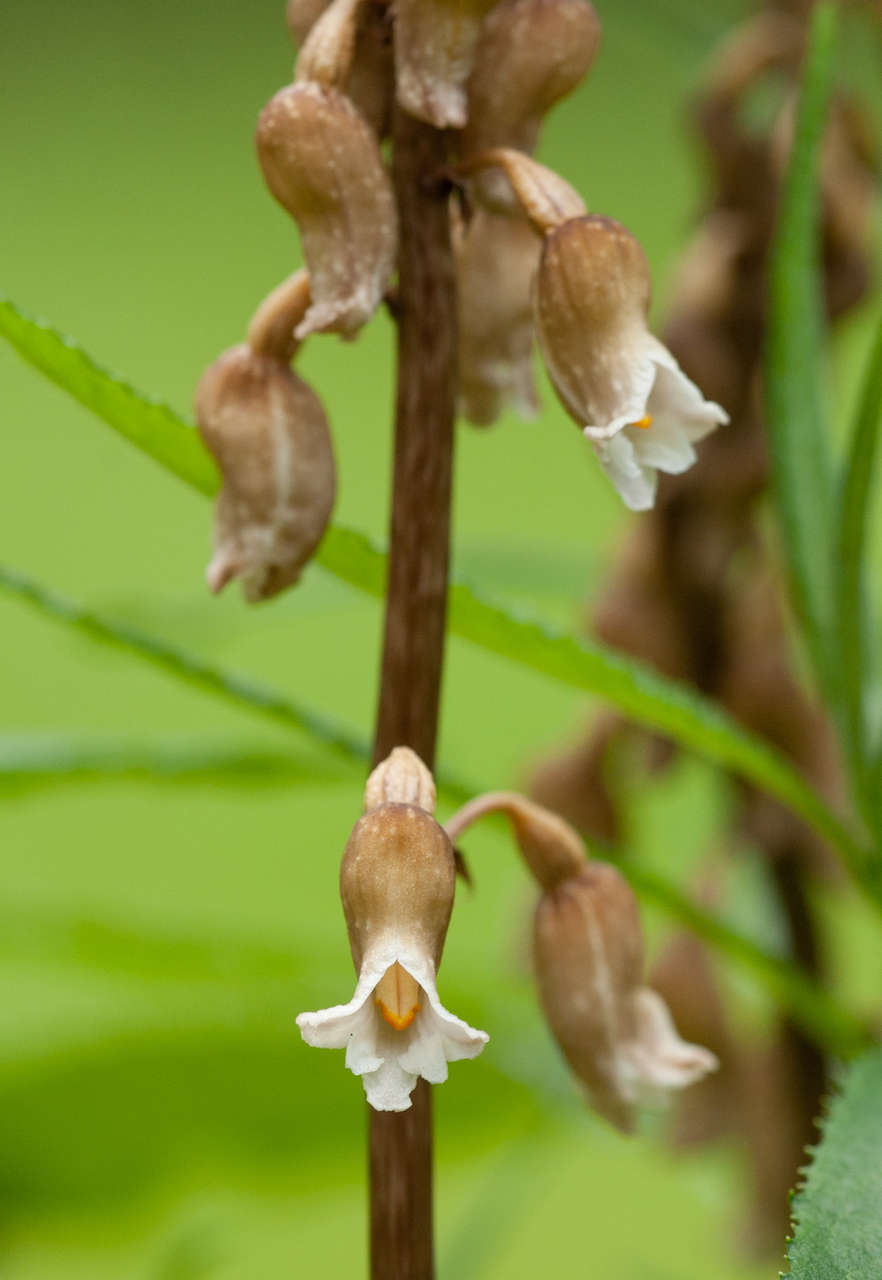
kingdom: Plantae
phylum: Tracheophyta
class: Liliopsida
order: Asparagales
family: Orchidaceae
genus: Gastrodia
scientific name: Gastrodia procera
